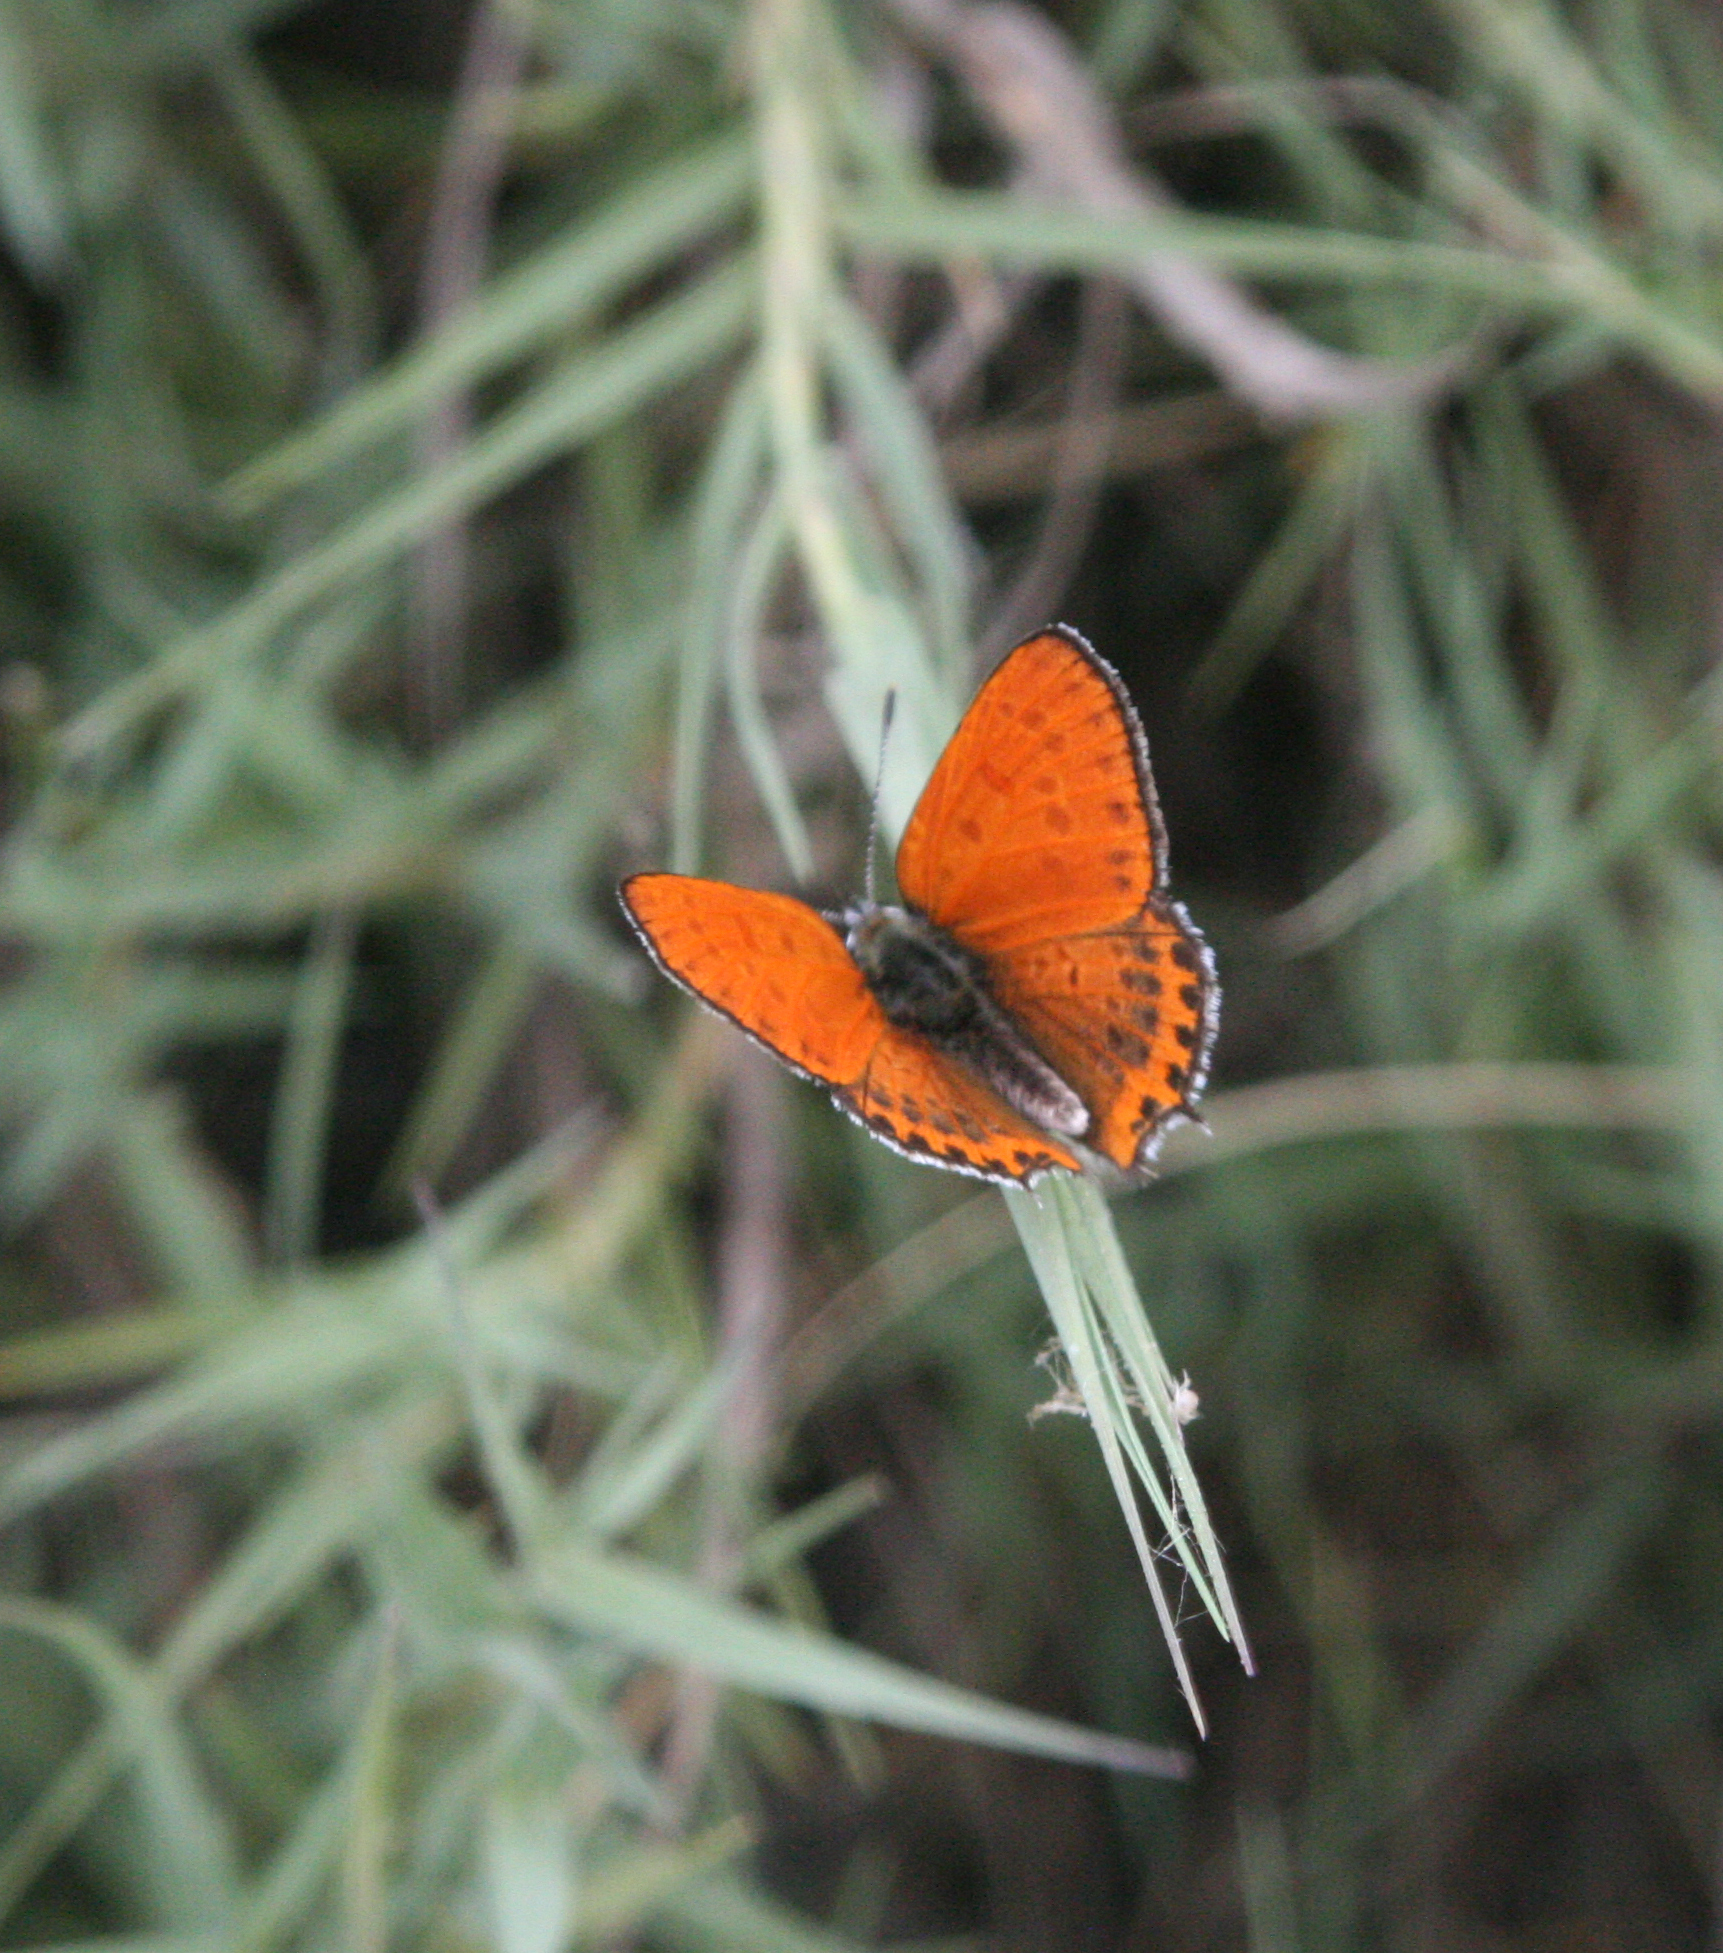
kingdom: Animalia
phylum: Arthropoda
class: Insecta
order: Lepidoptera
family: Lycaenidae
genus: Thersamonia
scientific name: Thersamonia thersamon
